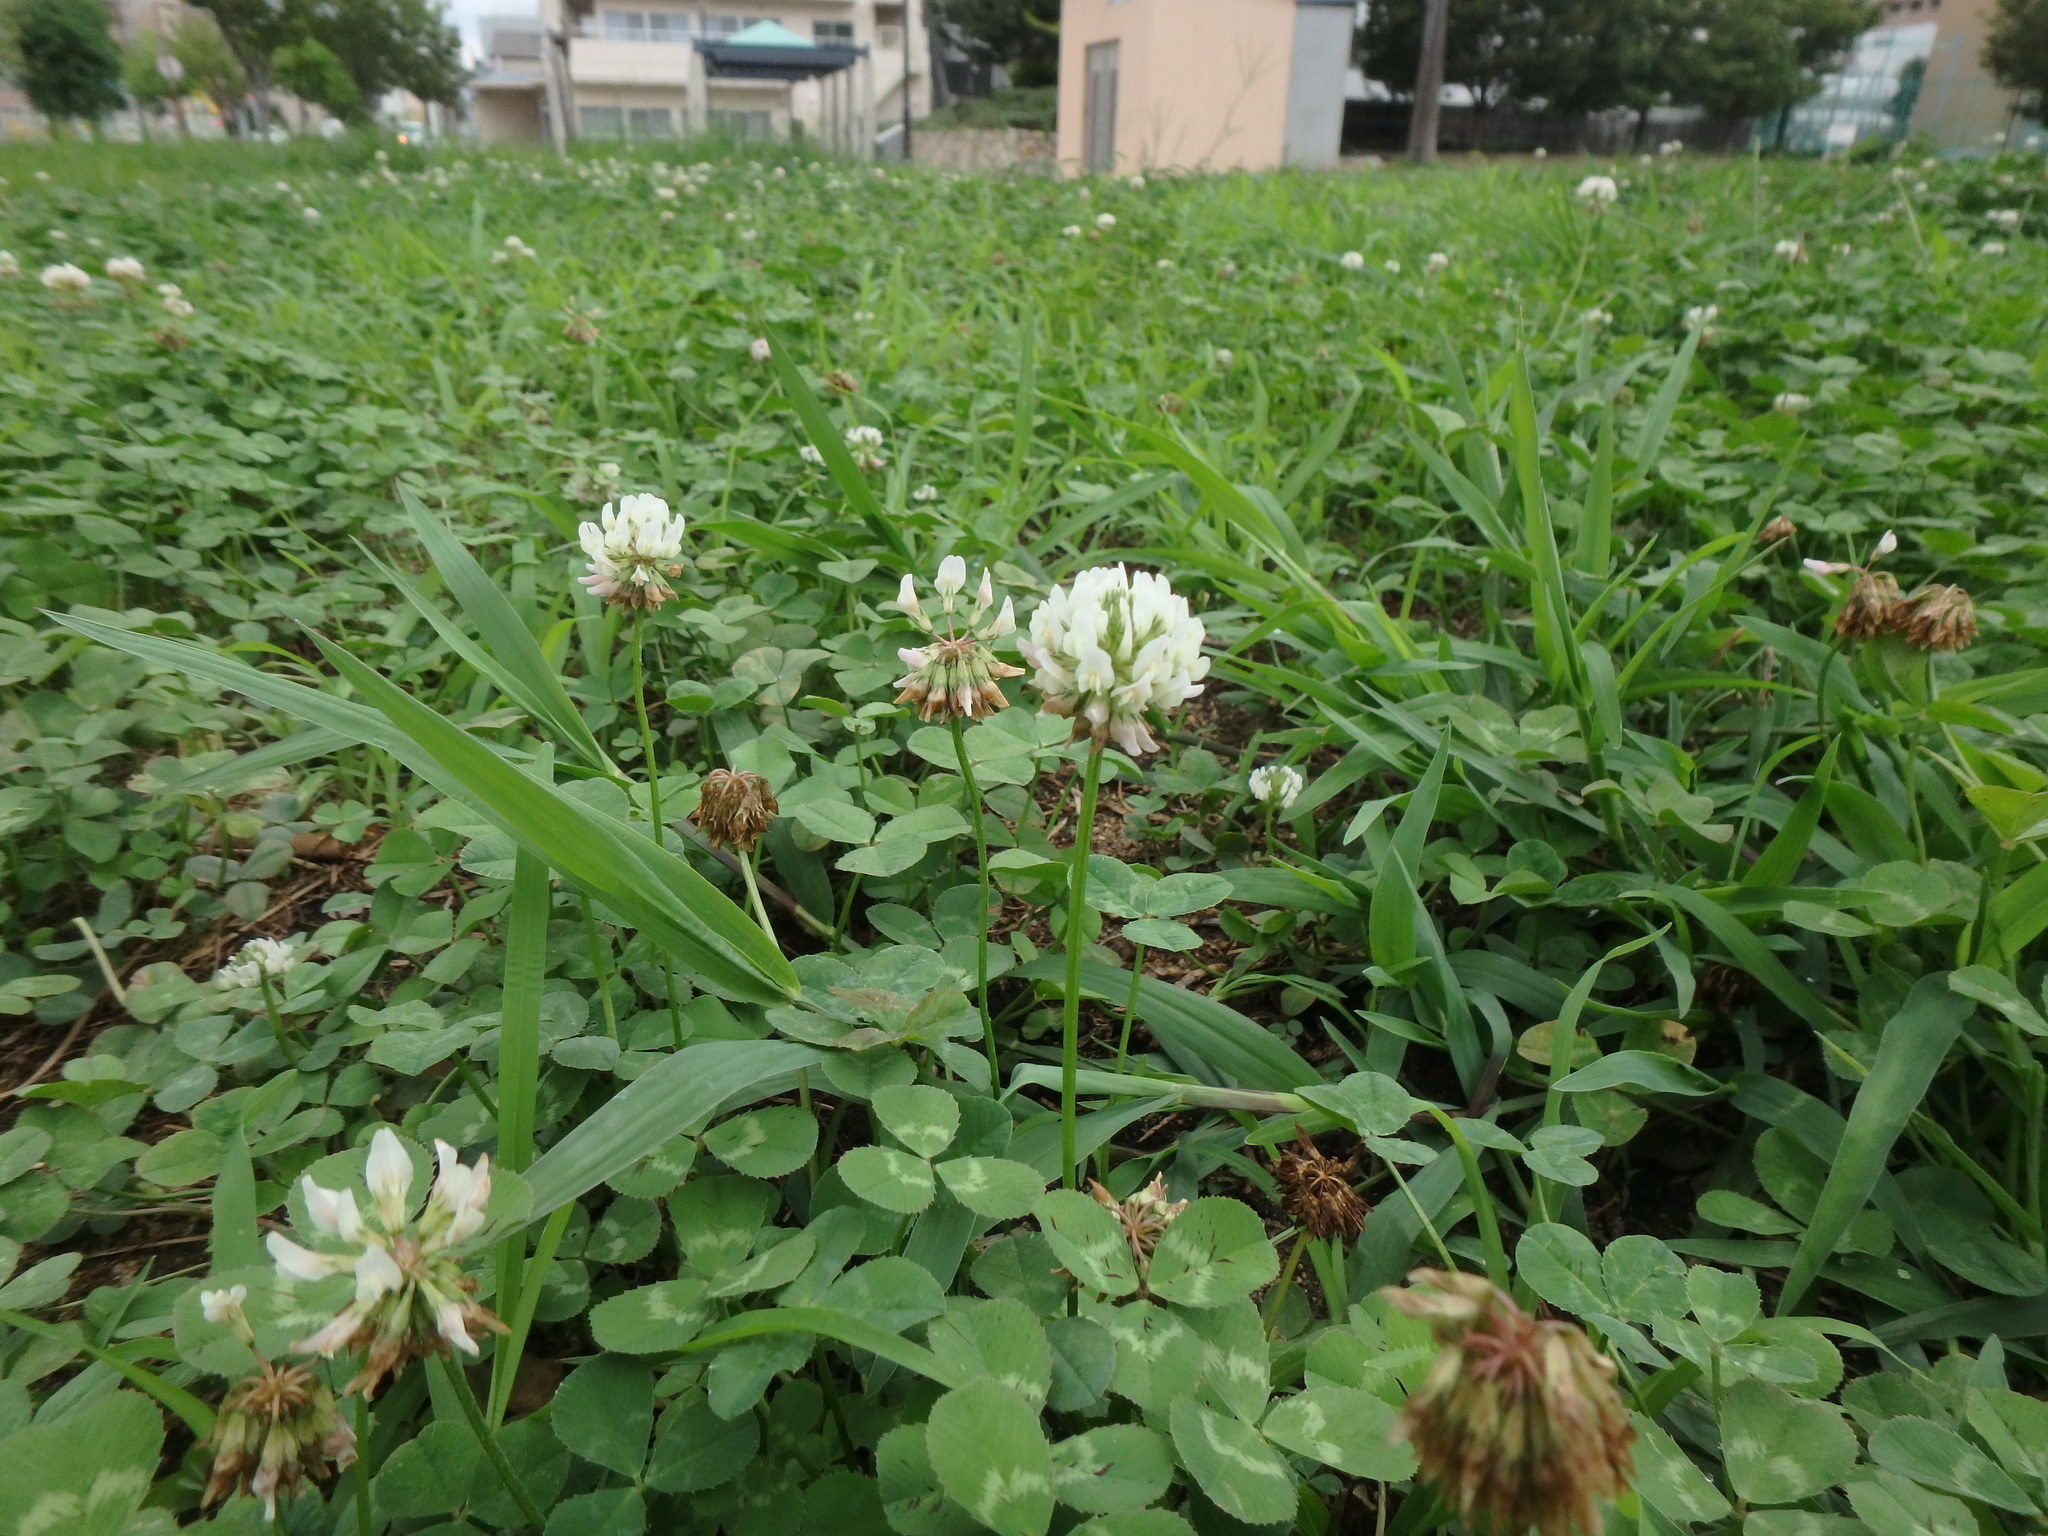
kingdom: Plantae
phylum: Tracheophyta
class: Magnoliopsida
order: Fabales
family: Fabaceae
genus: Trifolium
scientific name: Trifolium repens
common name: White clover
